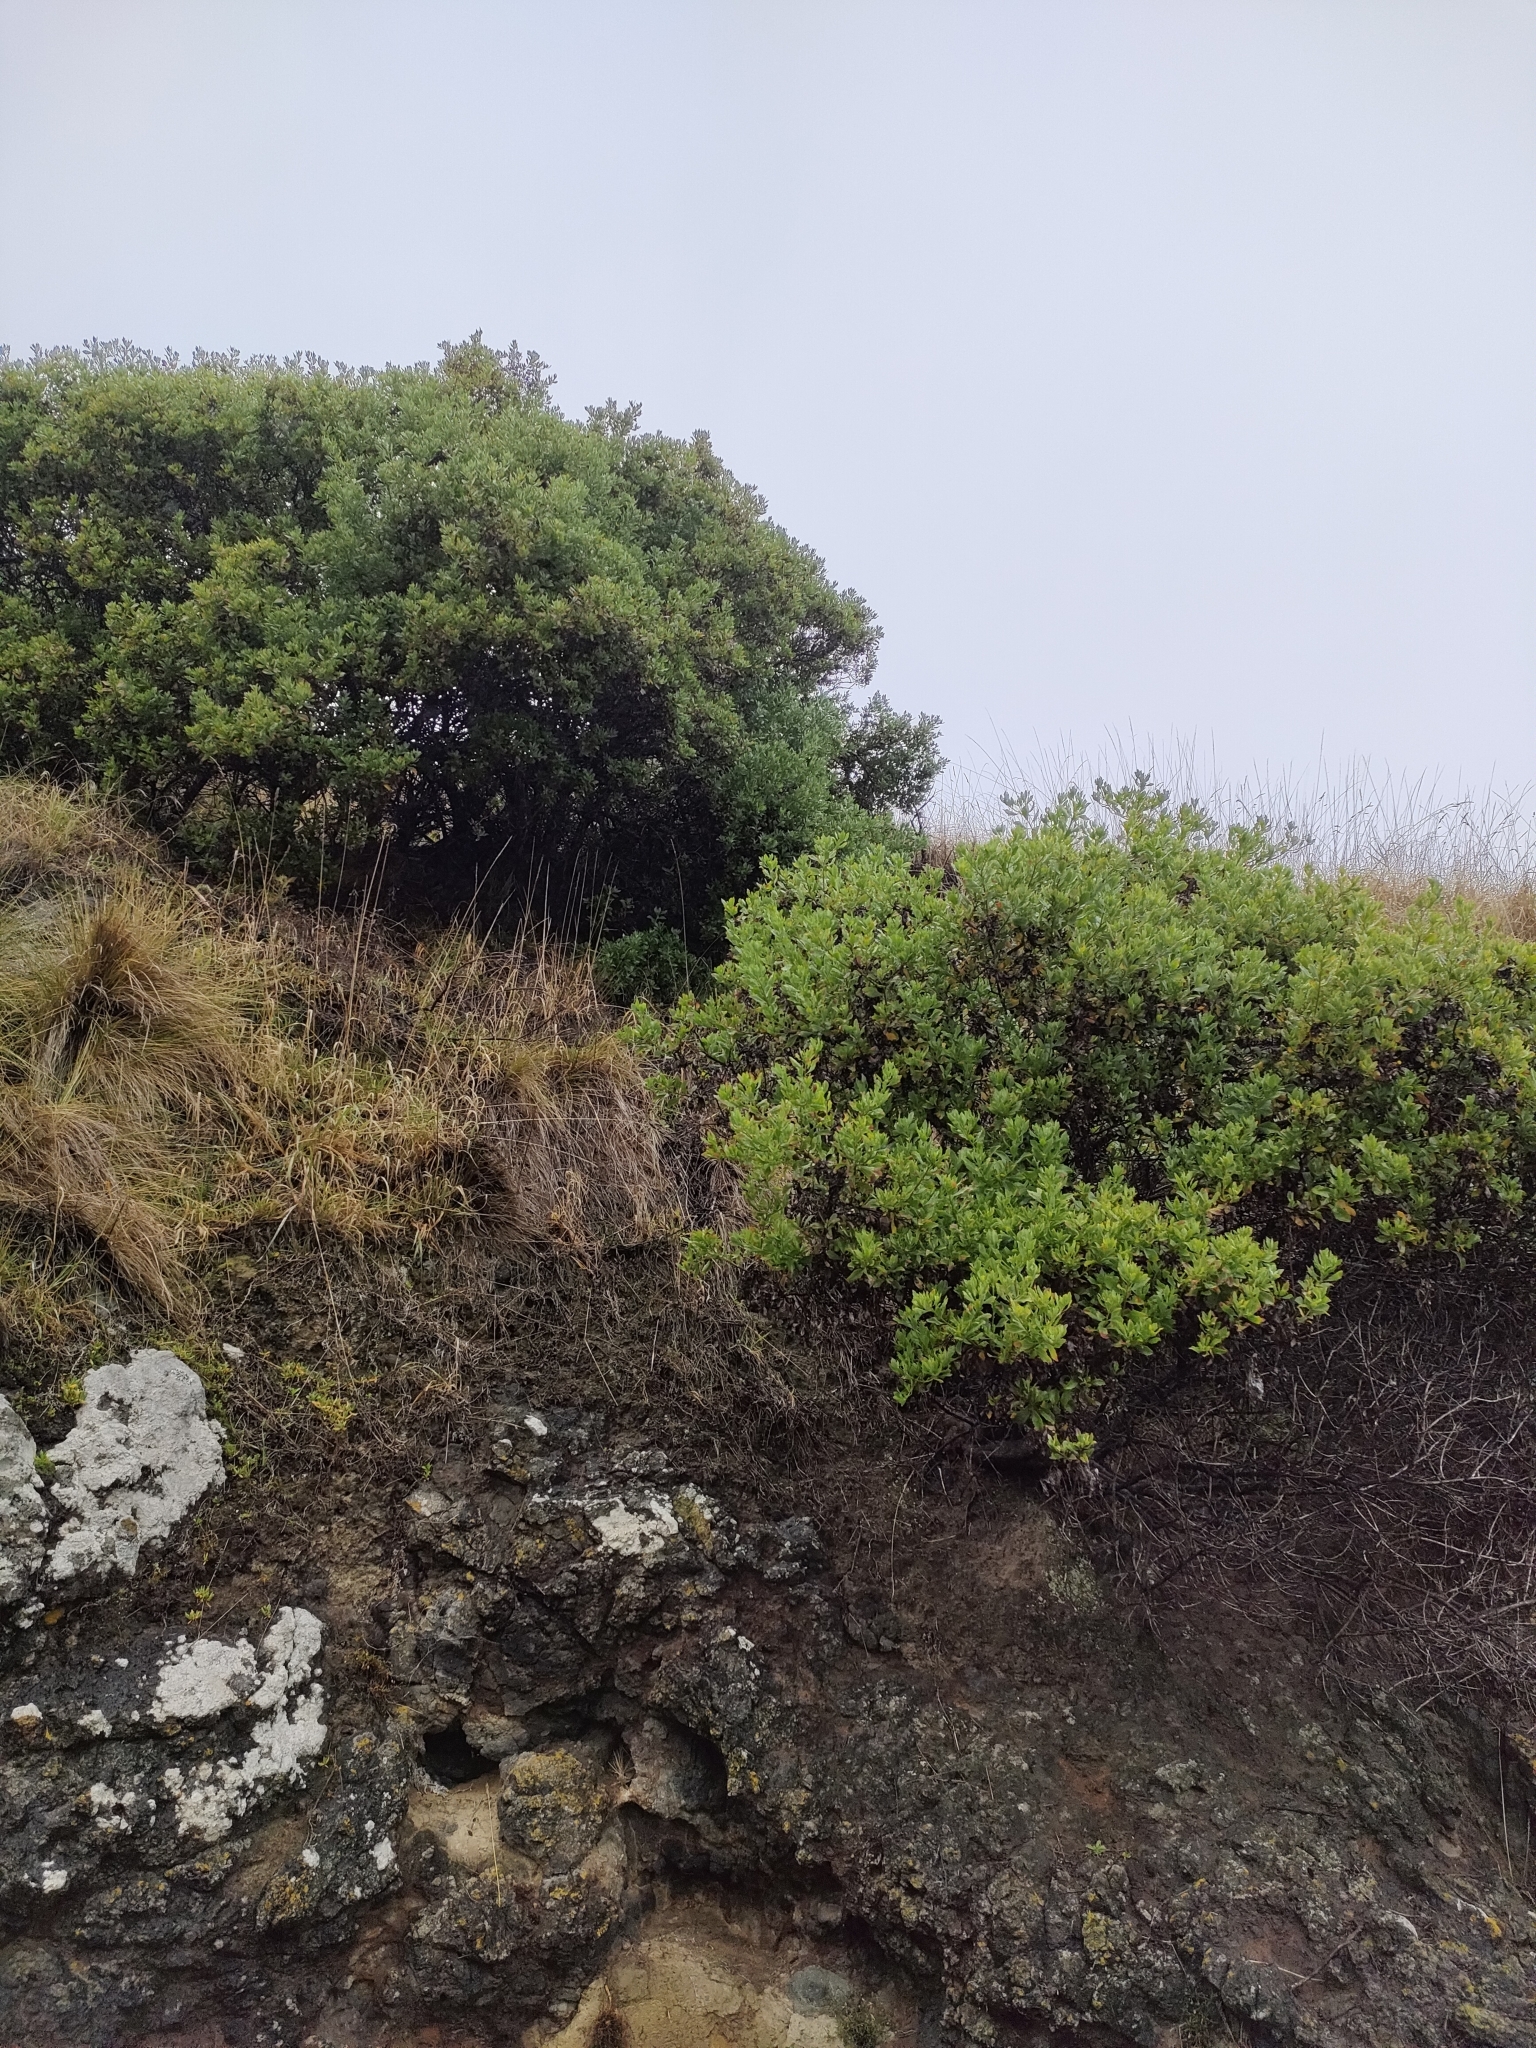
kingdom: Plantae
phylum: Tracheophyta
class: Magnoliopsida
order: Asterales
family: Asteraceae
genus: Osteospermum
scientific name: Osteospermum moniliferum
